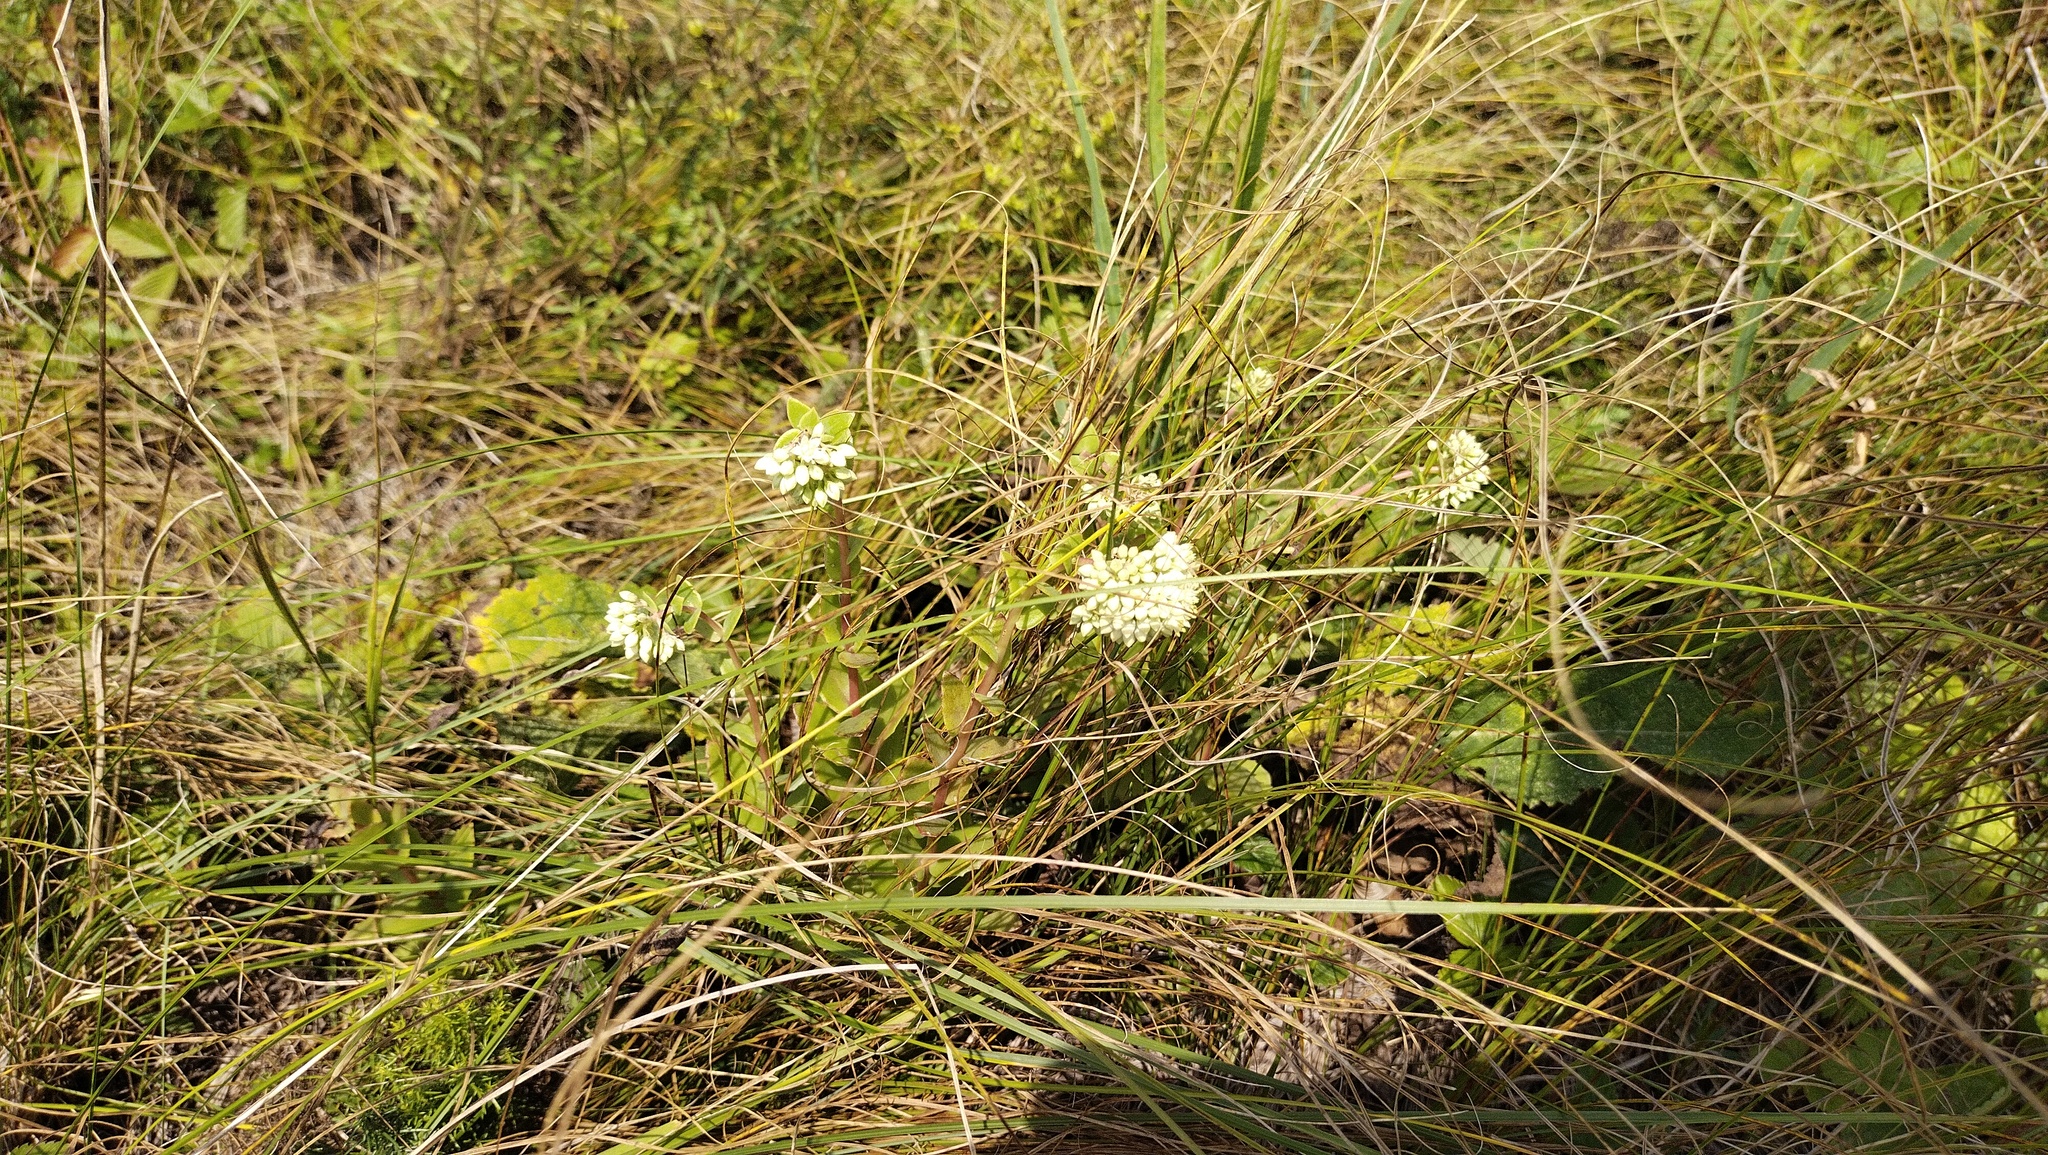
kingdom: Plantae
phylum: Tracheophyta
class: Magnoliopsida
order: Saxifragales
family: Crassulaceae
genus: Hylotelephium
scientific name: Hylotelephium maximum
